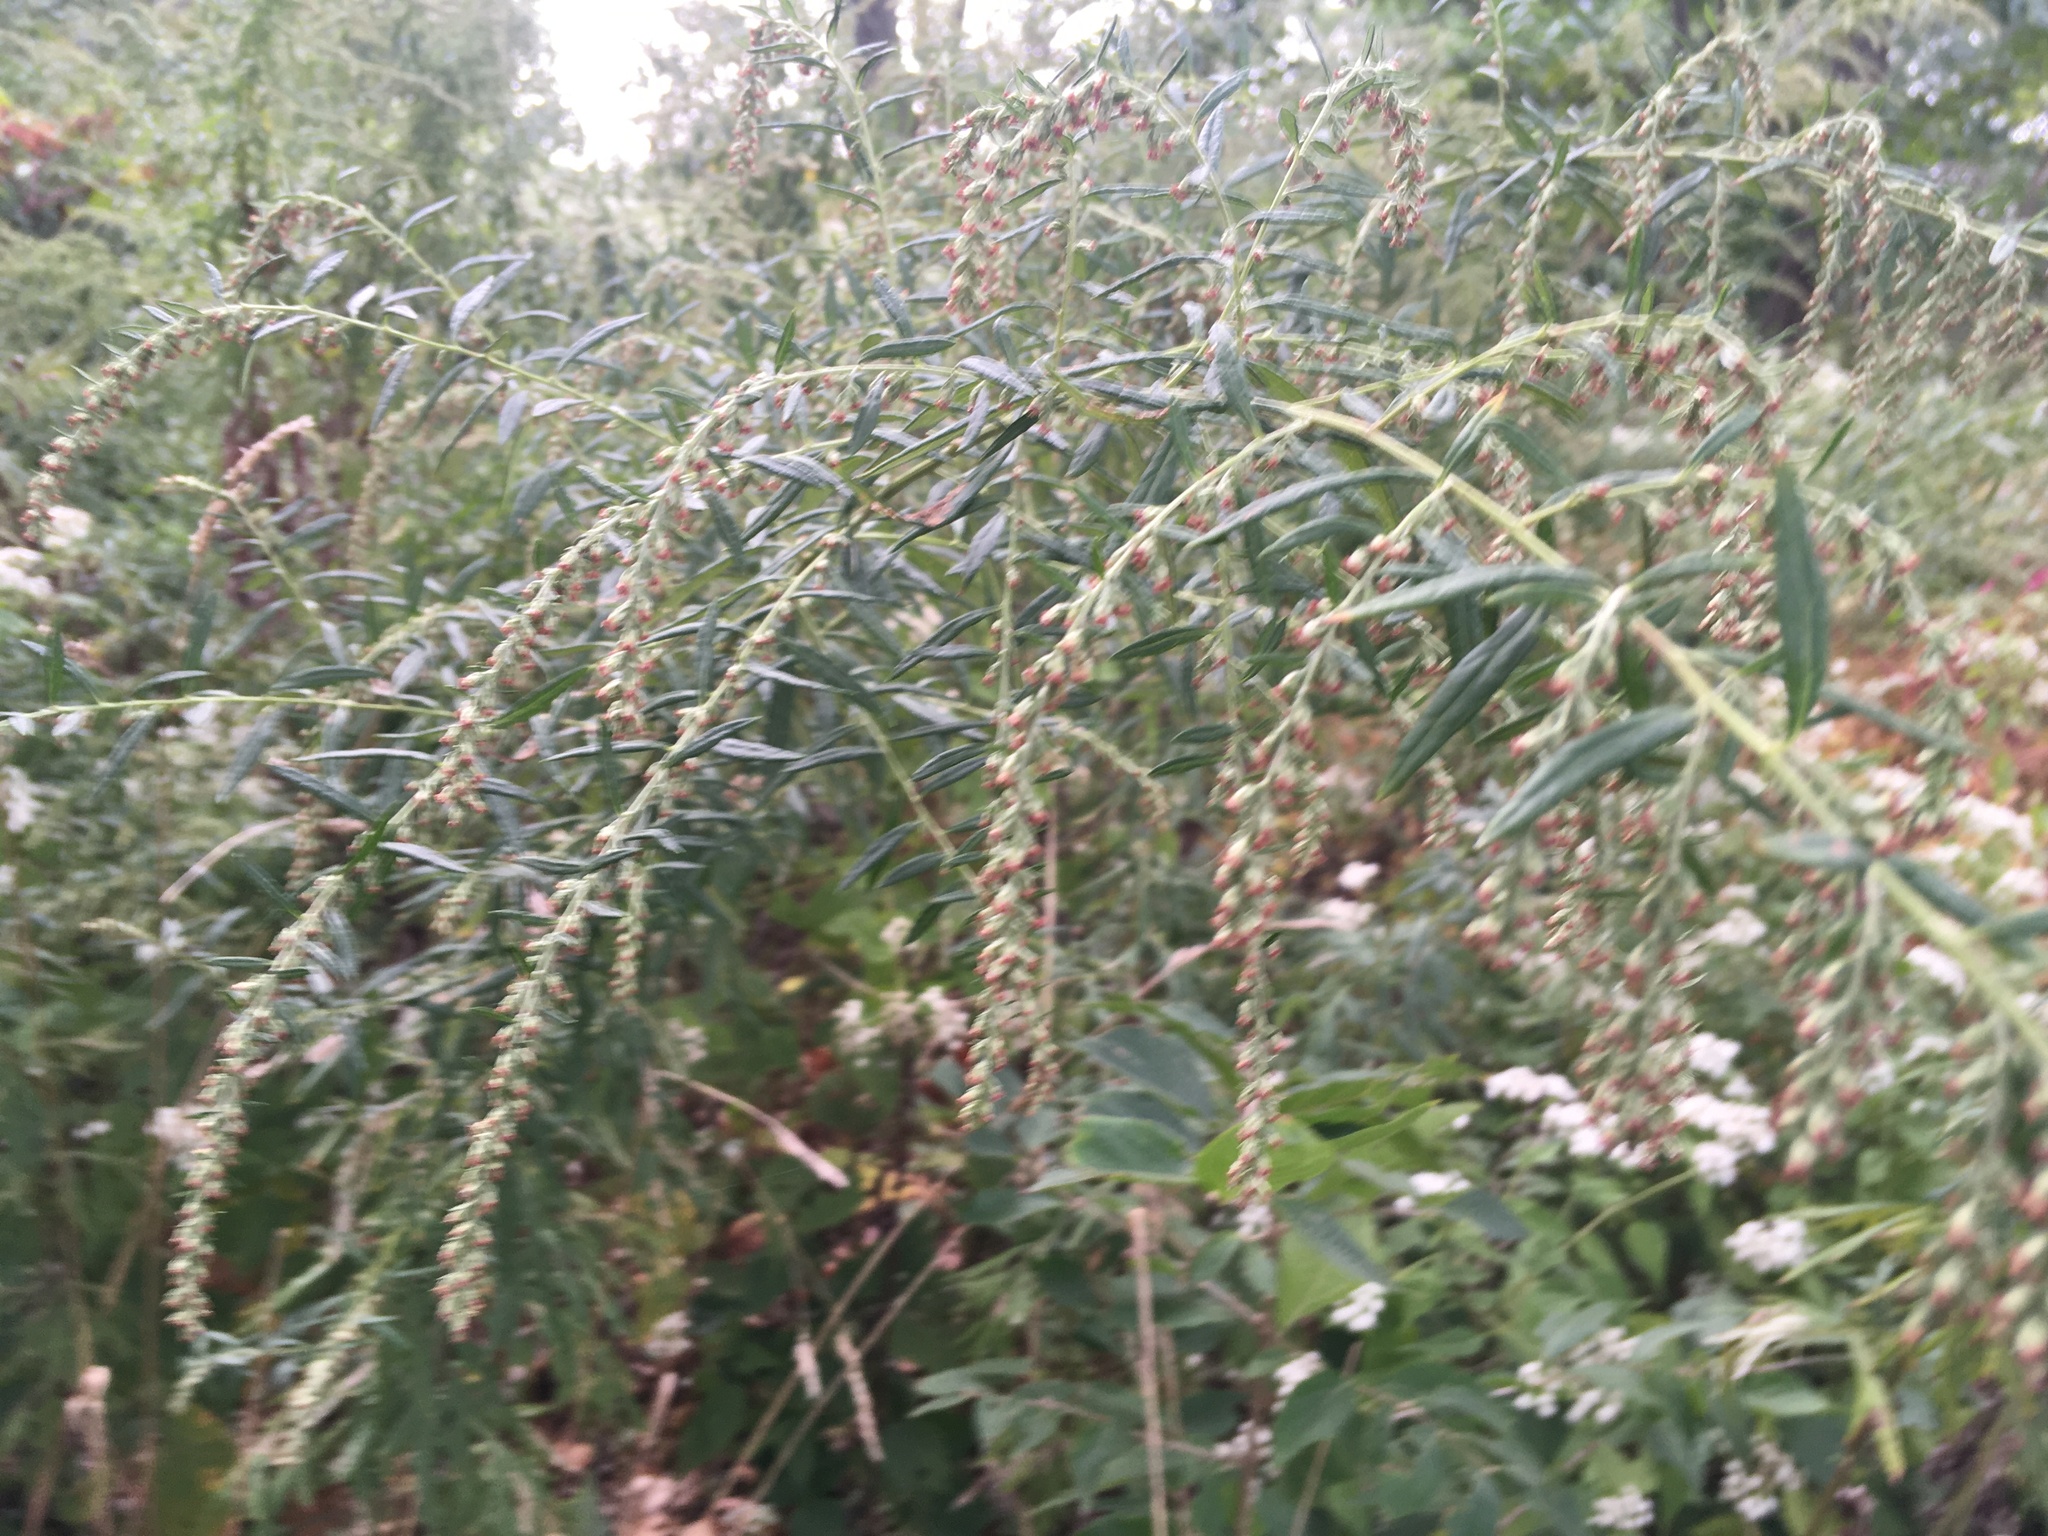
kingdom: Plantae
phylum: Tracheophyta
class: Magnoliopsida
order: Asterales
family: Asteraceae
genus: Artemisia
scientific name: Artemisia vulgaris
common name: Mugwort
